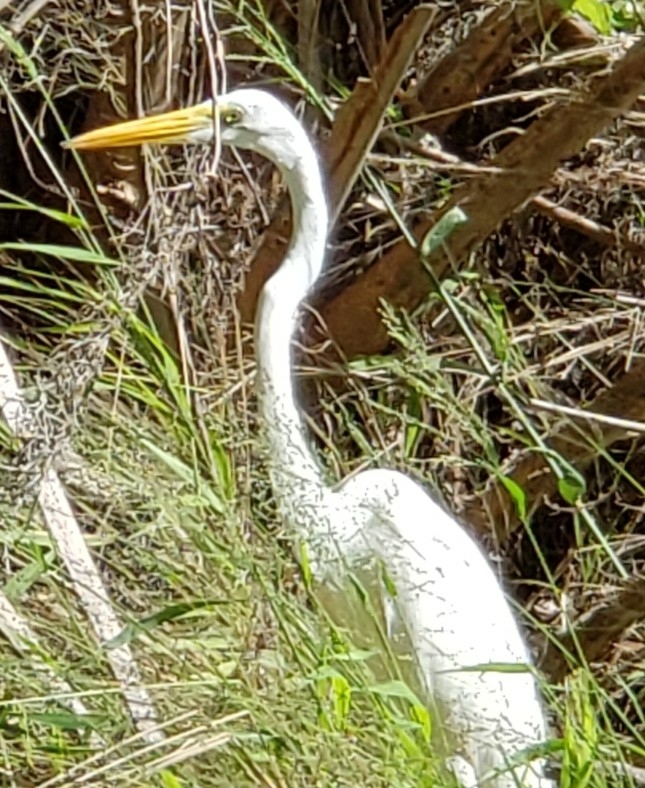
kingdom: Animalia
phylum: Chordata
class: Aves
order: Pelecaniformes
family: Ardeidae
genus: Ardea
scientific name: Ardea alba
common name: Great egret
